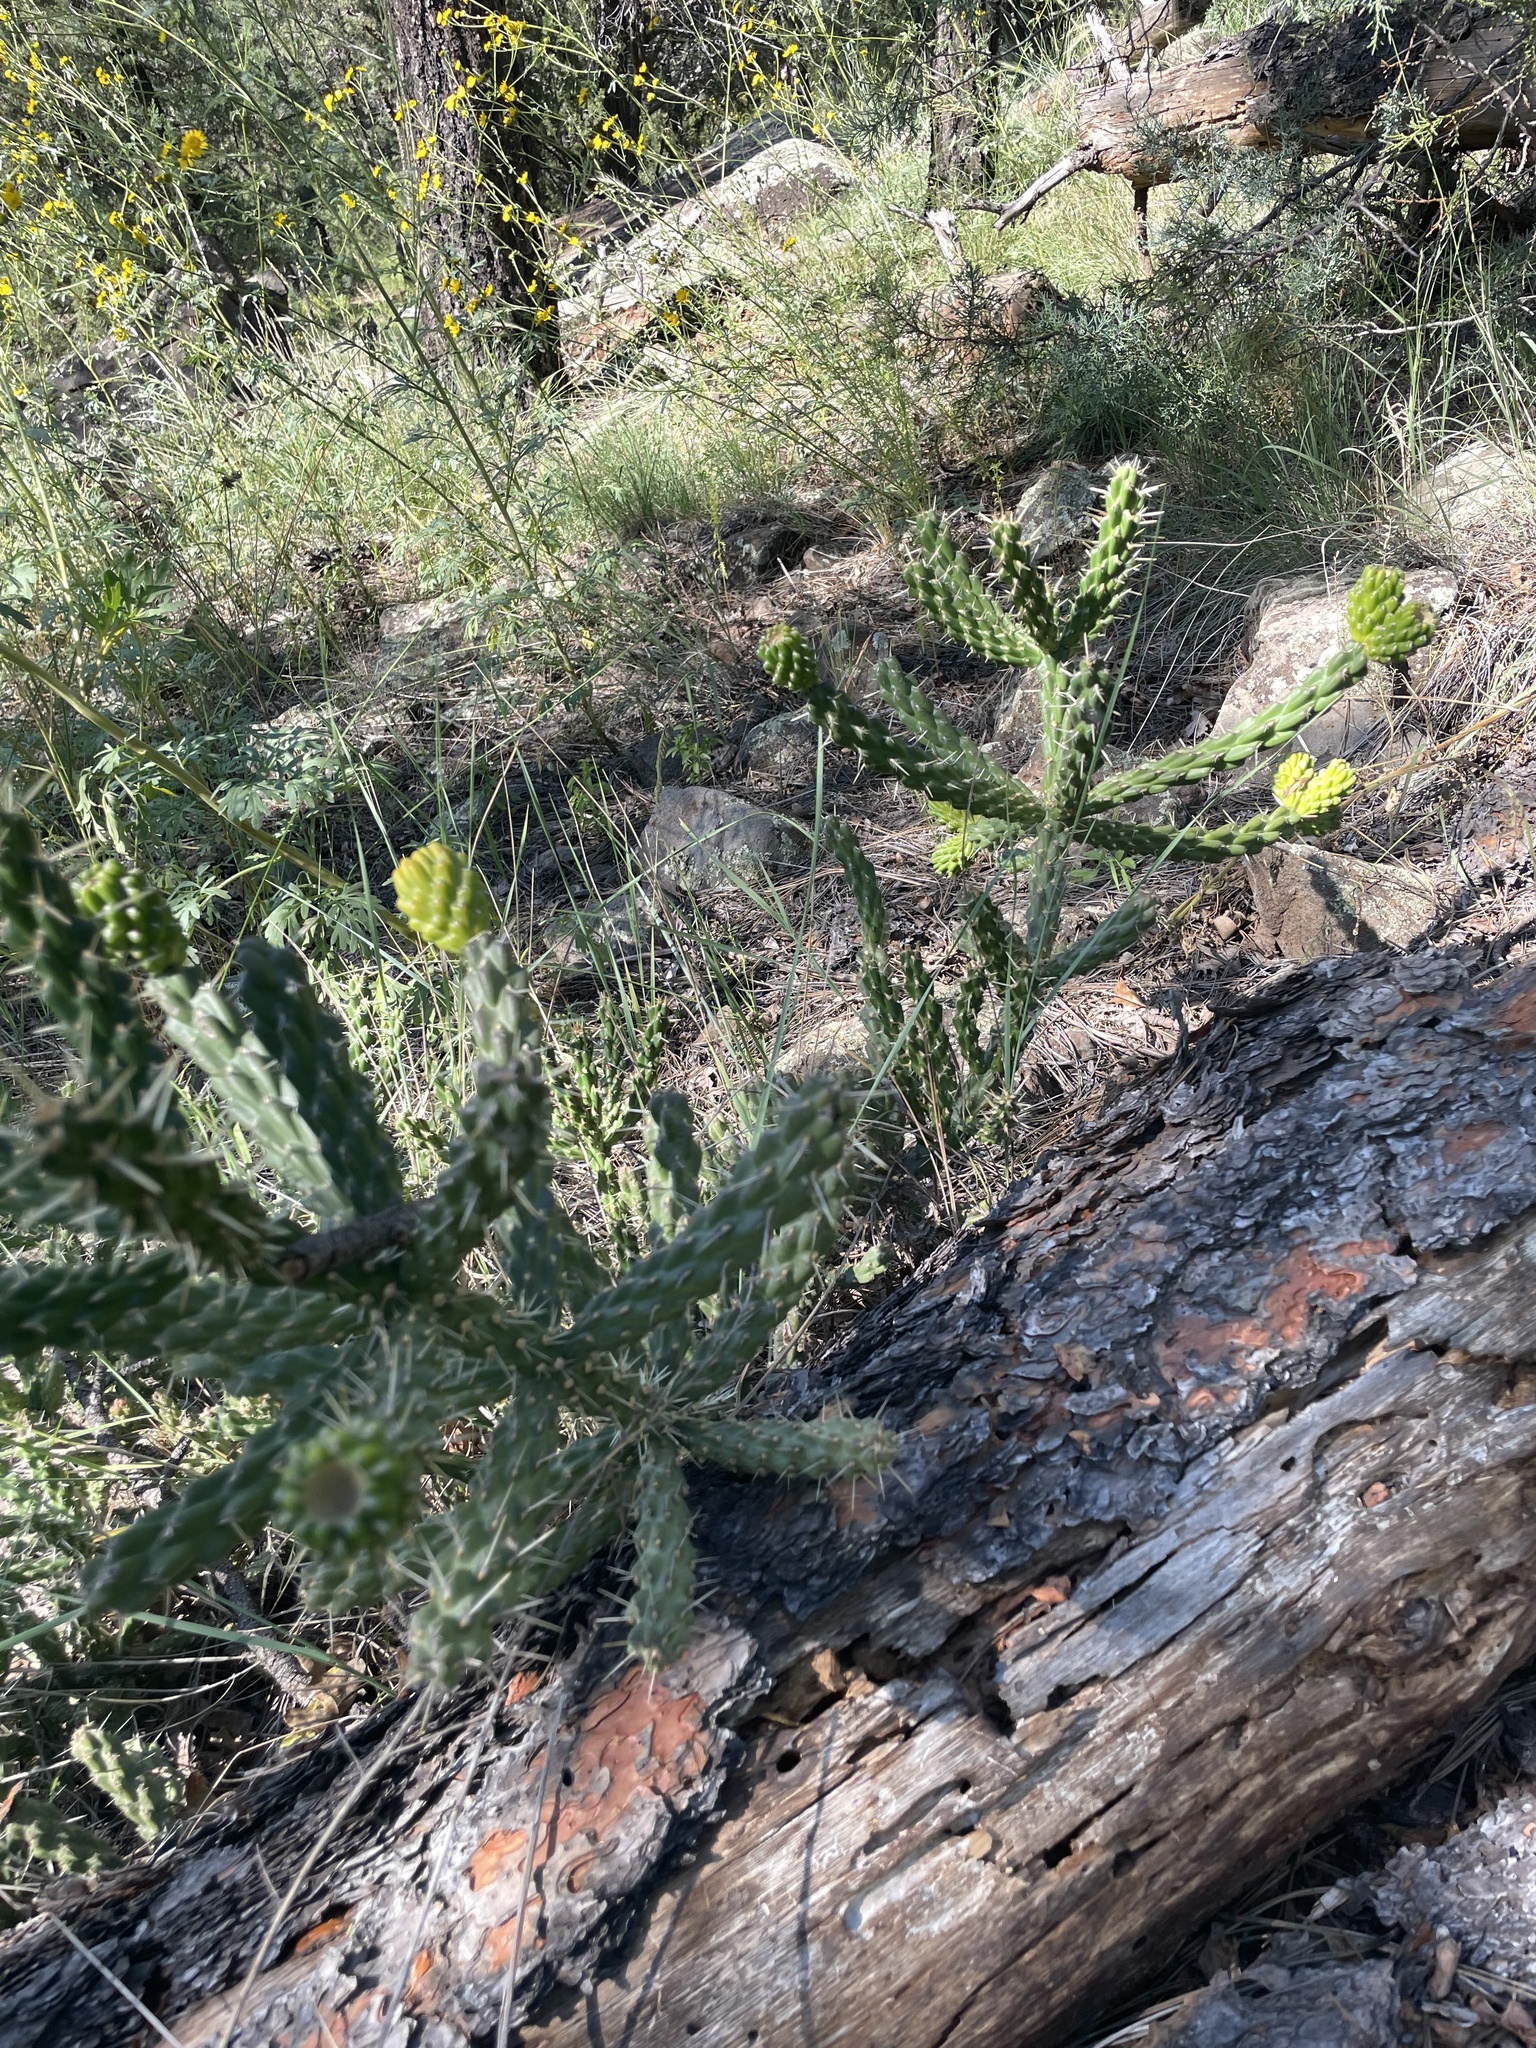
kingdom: Plantae
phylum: Tracheophyta
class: Magnoliopsida
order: Caryophyllales
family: Cactaceae
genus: Cylindropuntia
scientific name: Cylindropuntia whipplei
